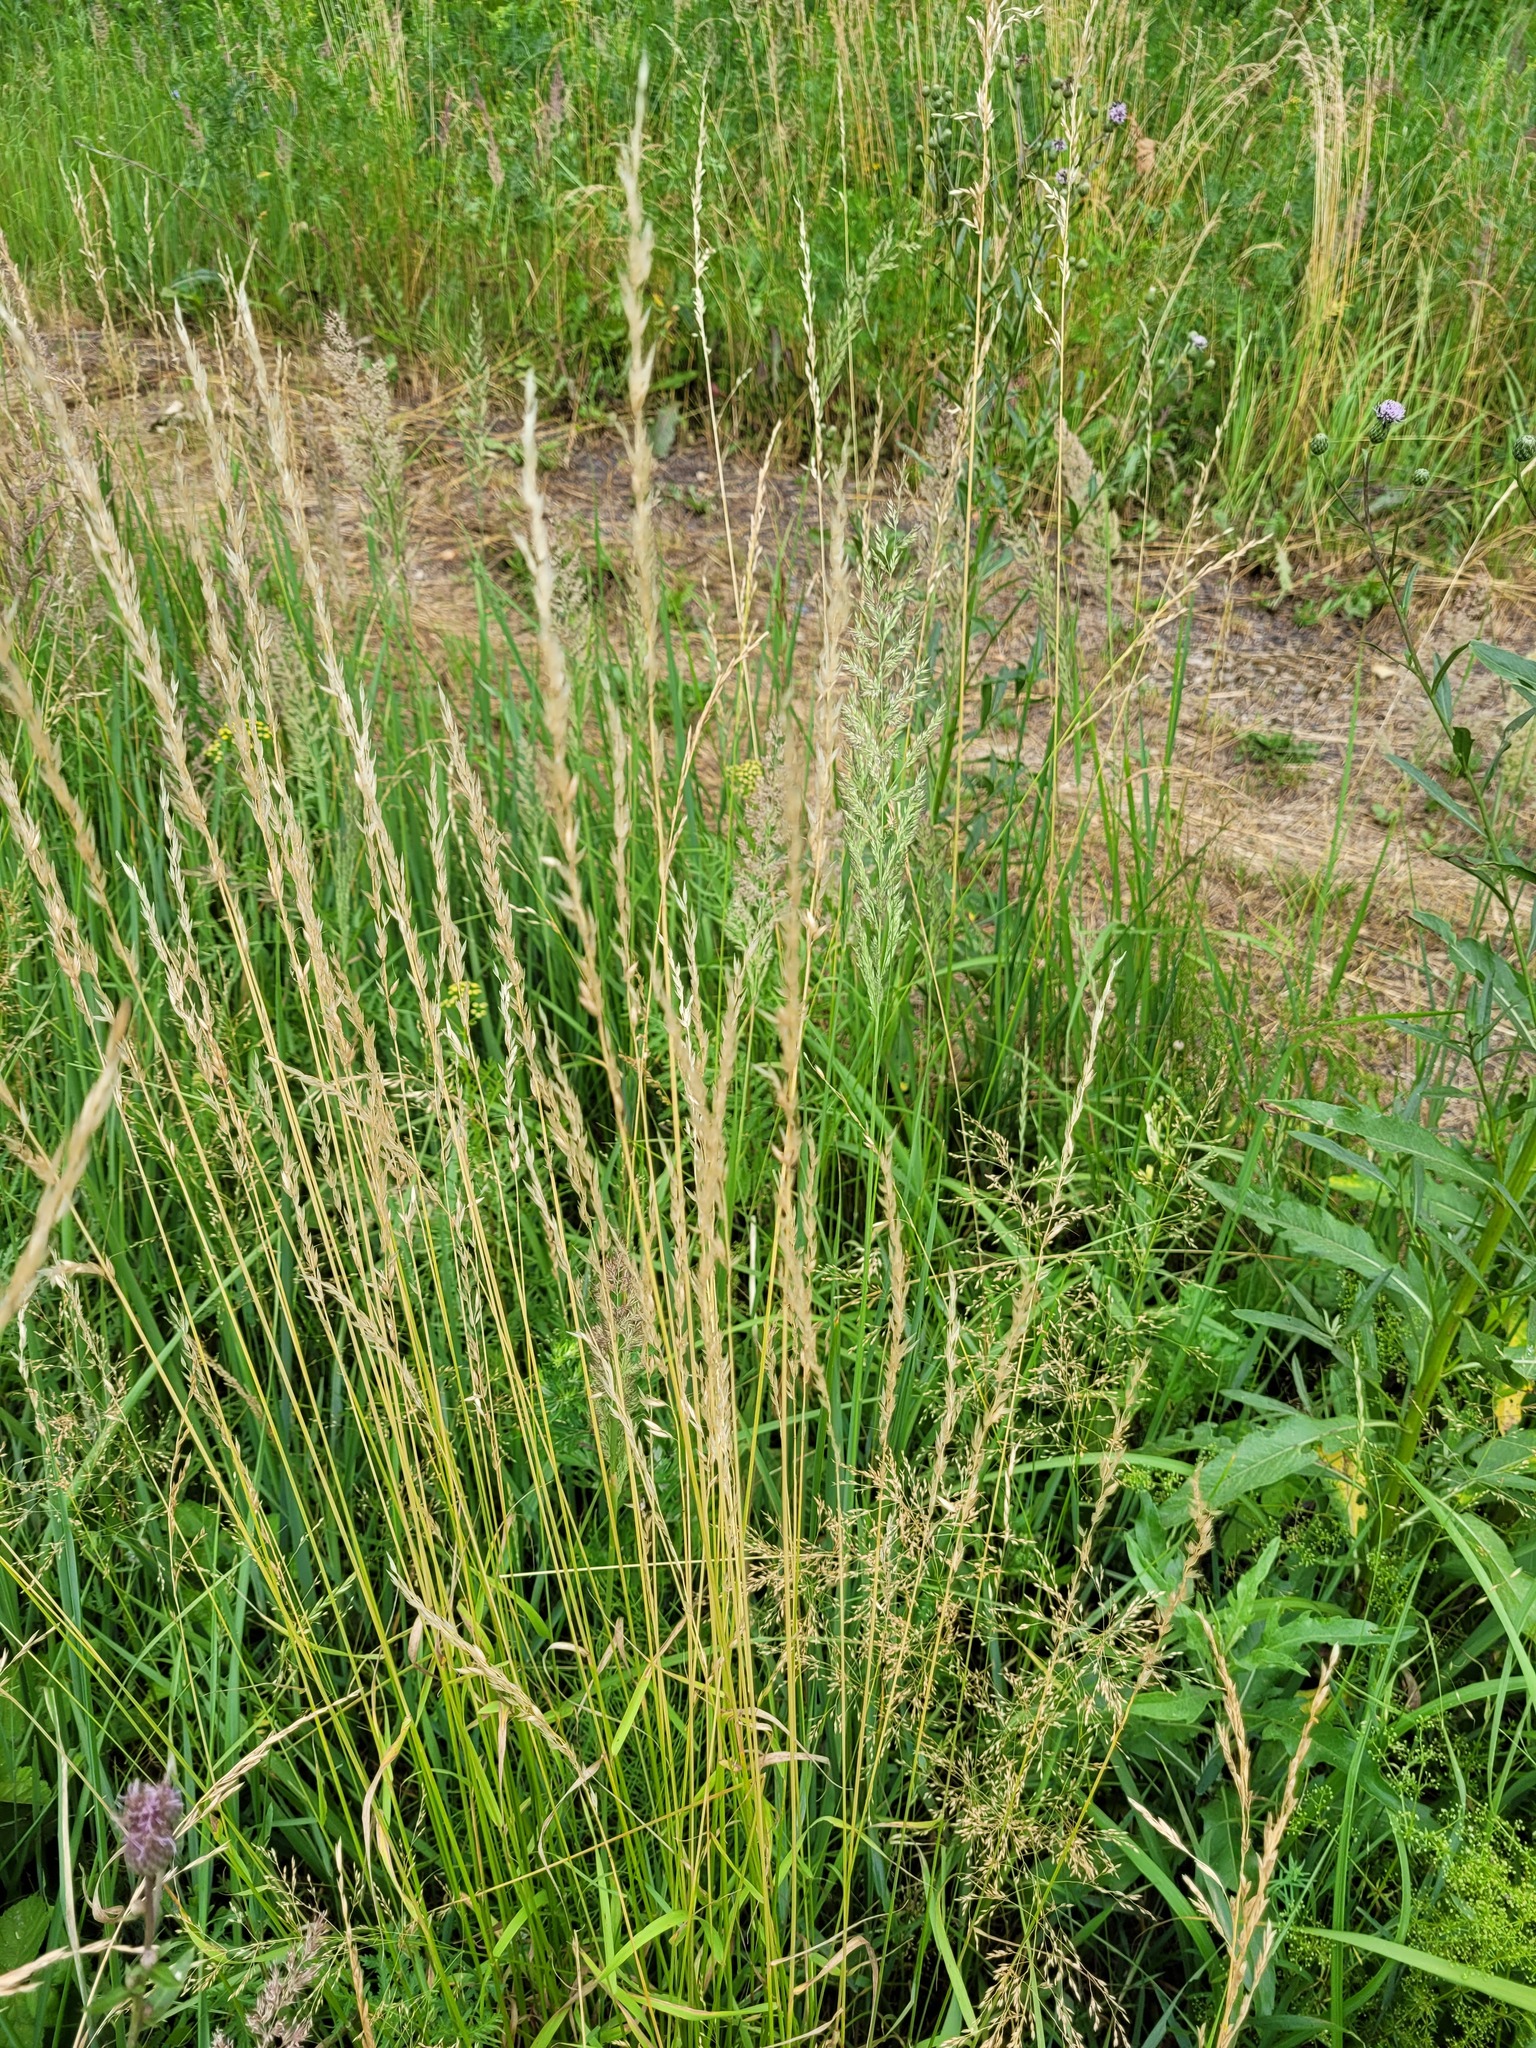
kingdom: Plantae
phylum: Tracheophyta
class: Liliopsida
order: Poales
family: Poaceae
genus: Arrhenatherum
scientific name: Arrhenatherum elatius
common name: Tall oatgrass
